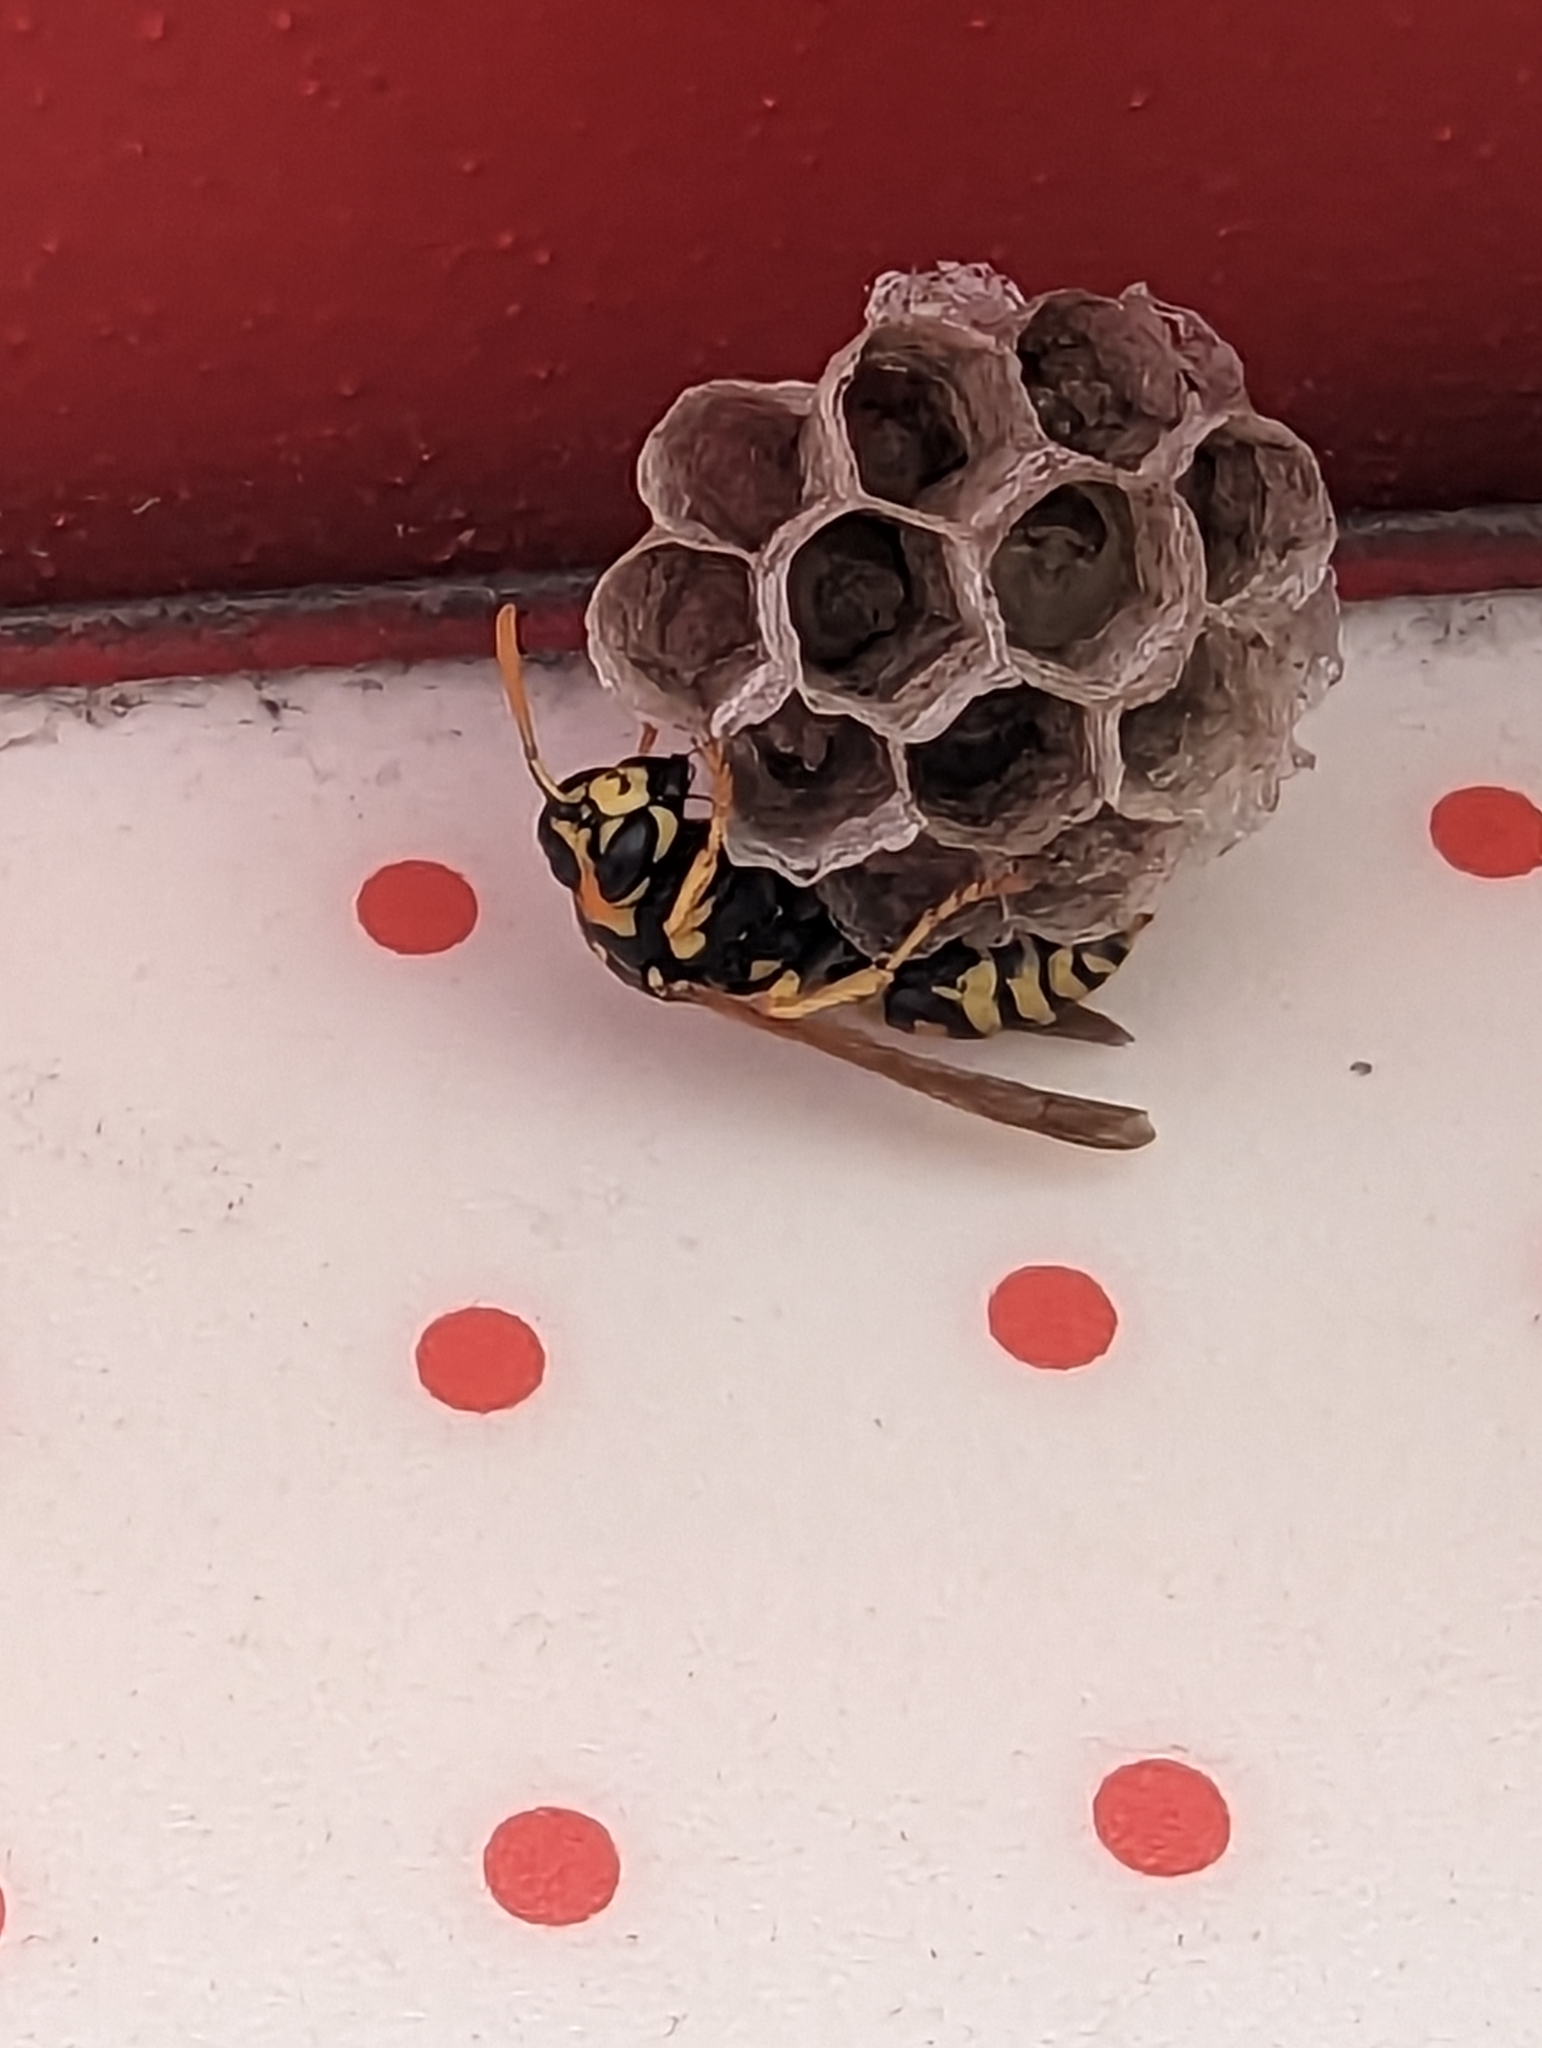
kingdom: Animalia
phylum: Arthropoda
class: Insecta
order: Hymenoptera
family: Eumenidae
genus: Polistes
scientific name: Polistes dominula
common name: Paper wasp
